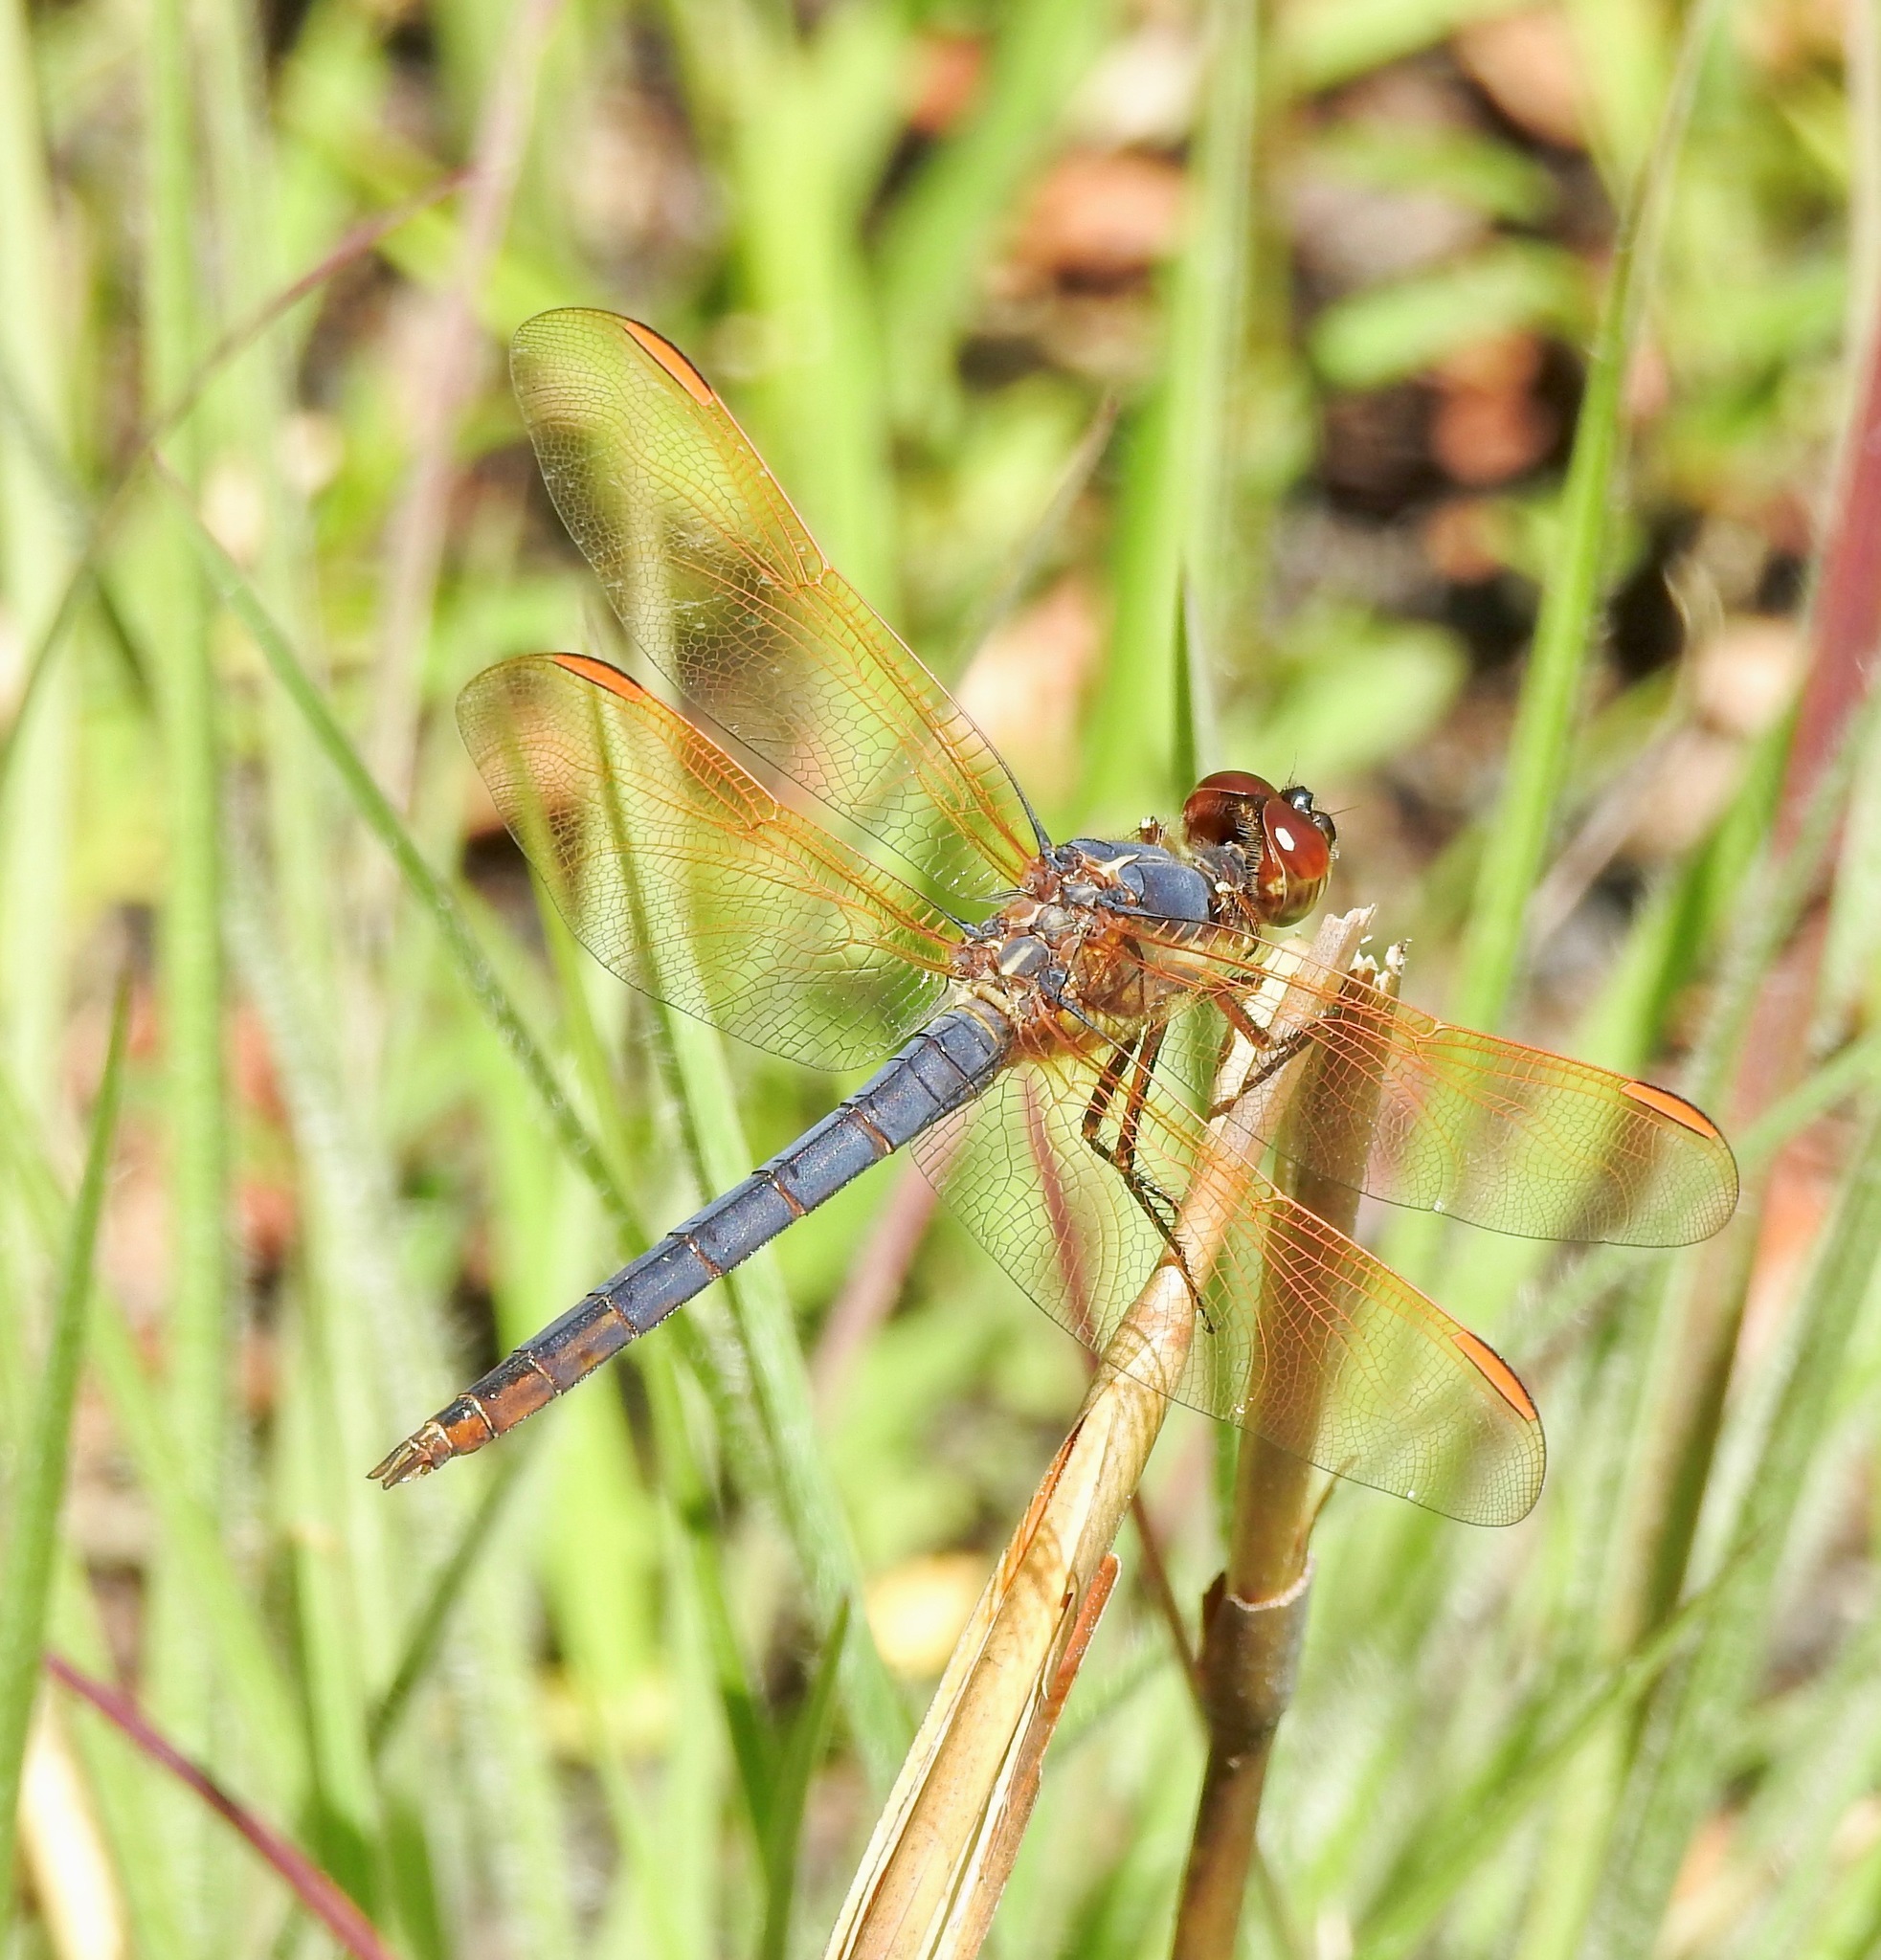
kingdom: Animalia
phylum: Arthropoda
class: Insecta
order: Odonata
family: Libellulidae
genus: Libellula
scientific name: Libellula jesseana
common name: Purple skimmer
